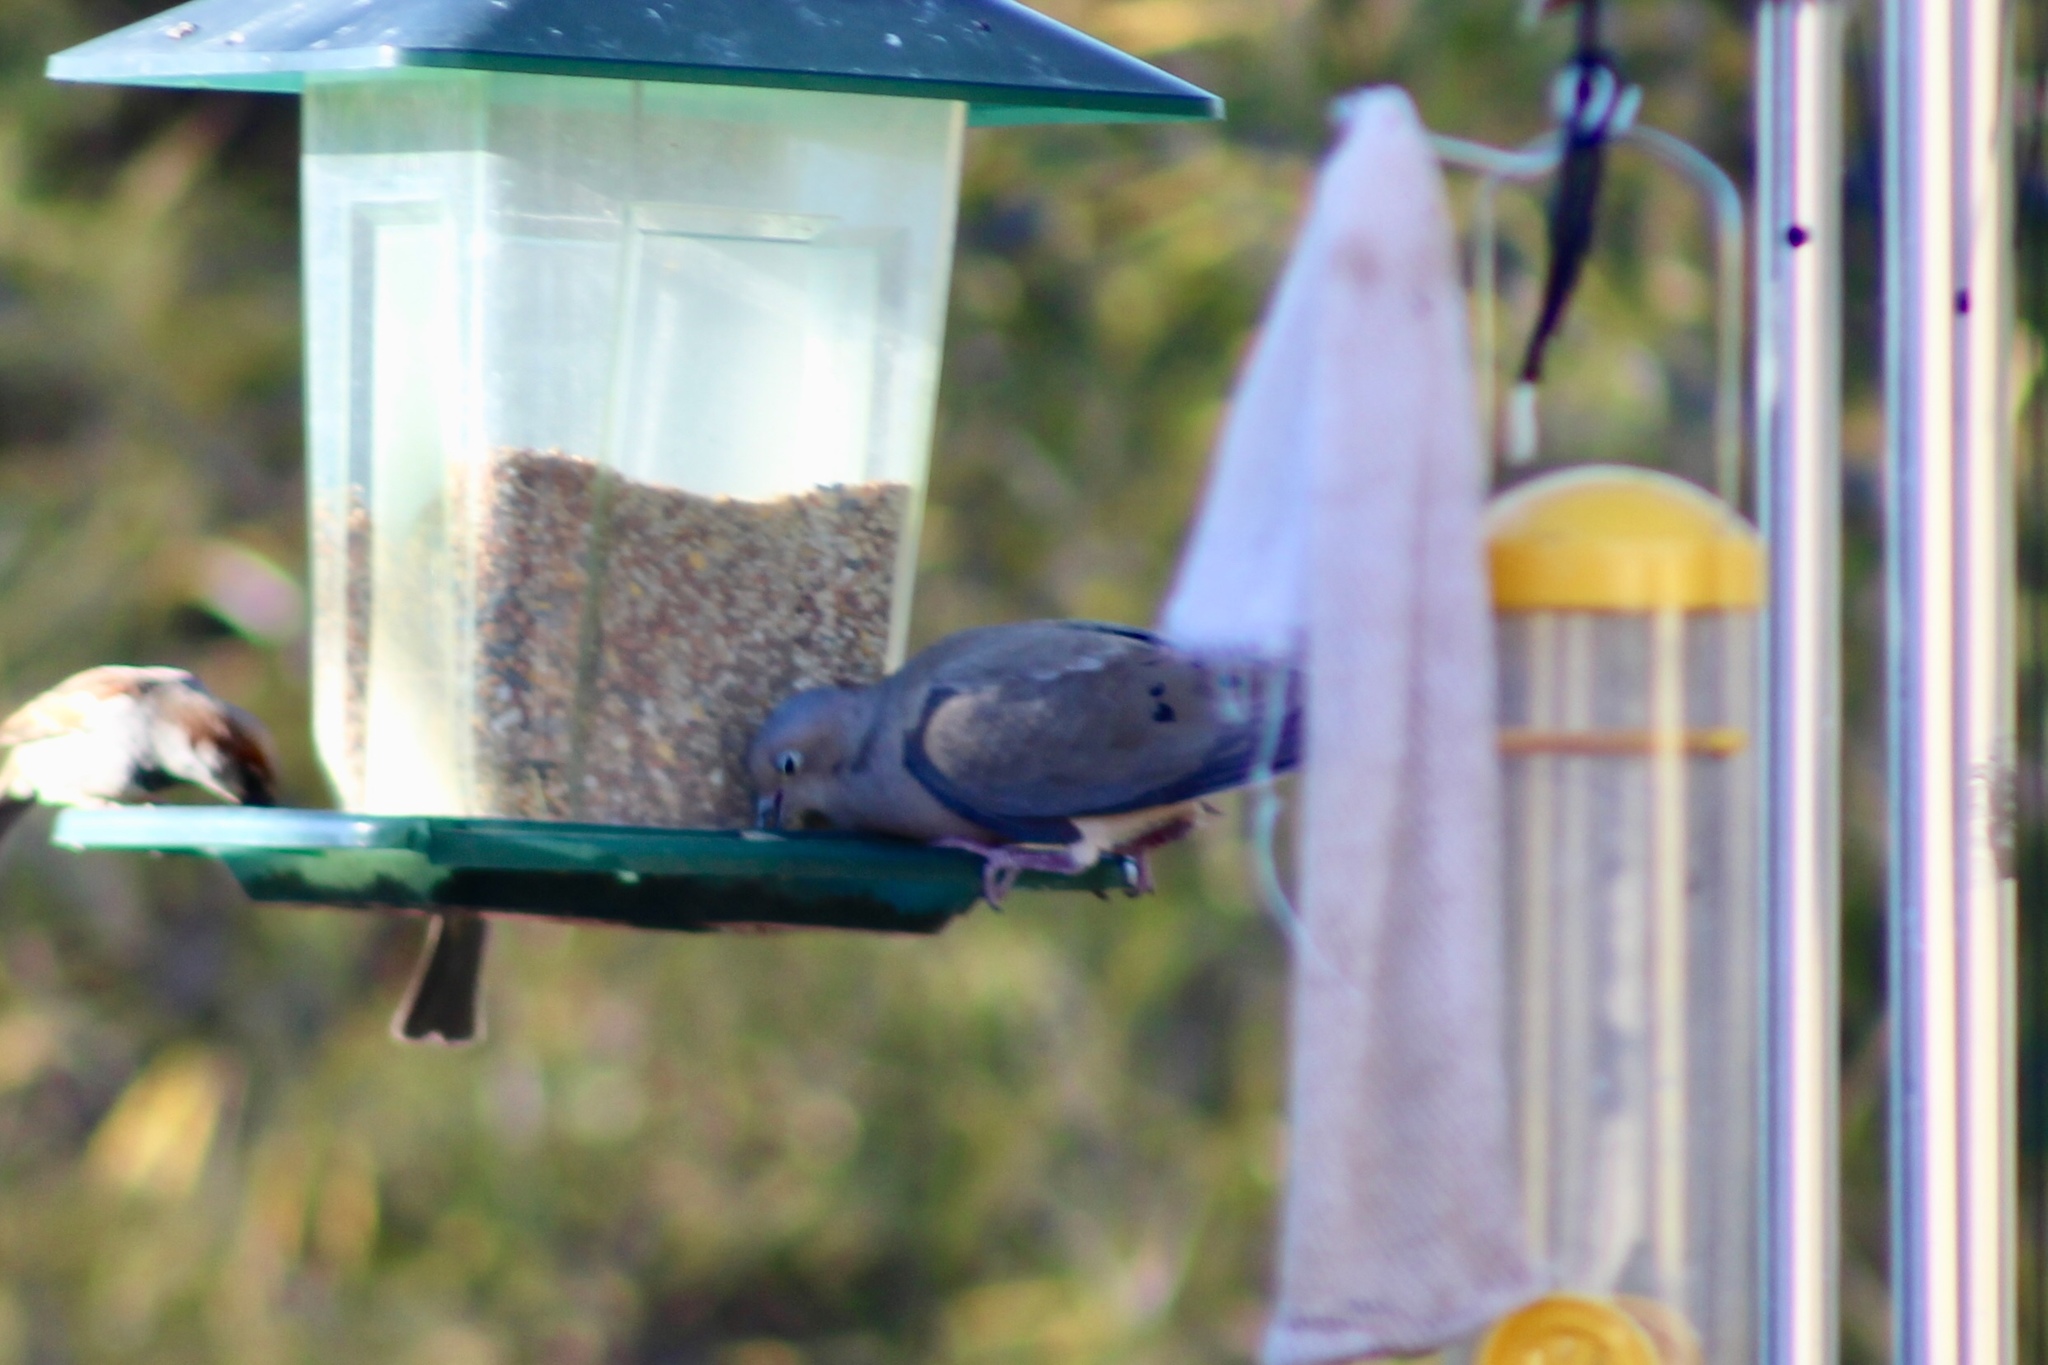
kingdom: Animalia
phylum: Chordata
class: Aves
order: Passeriformes
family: Passeridae
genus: Passer
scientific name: Passer domesticus
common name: House sparrow
